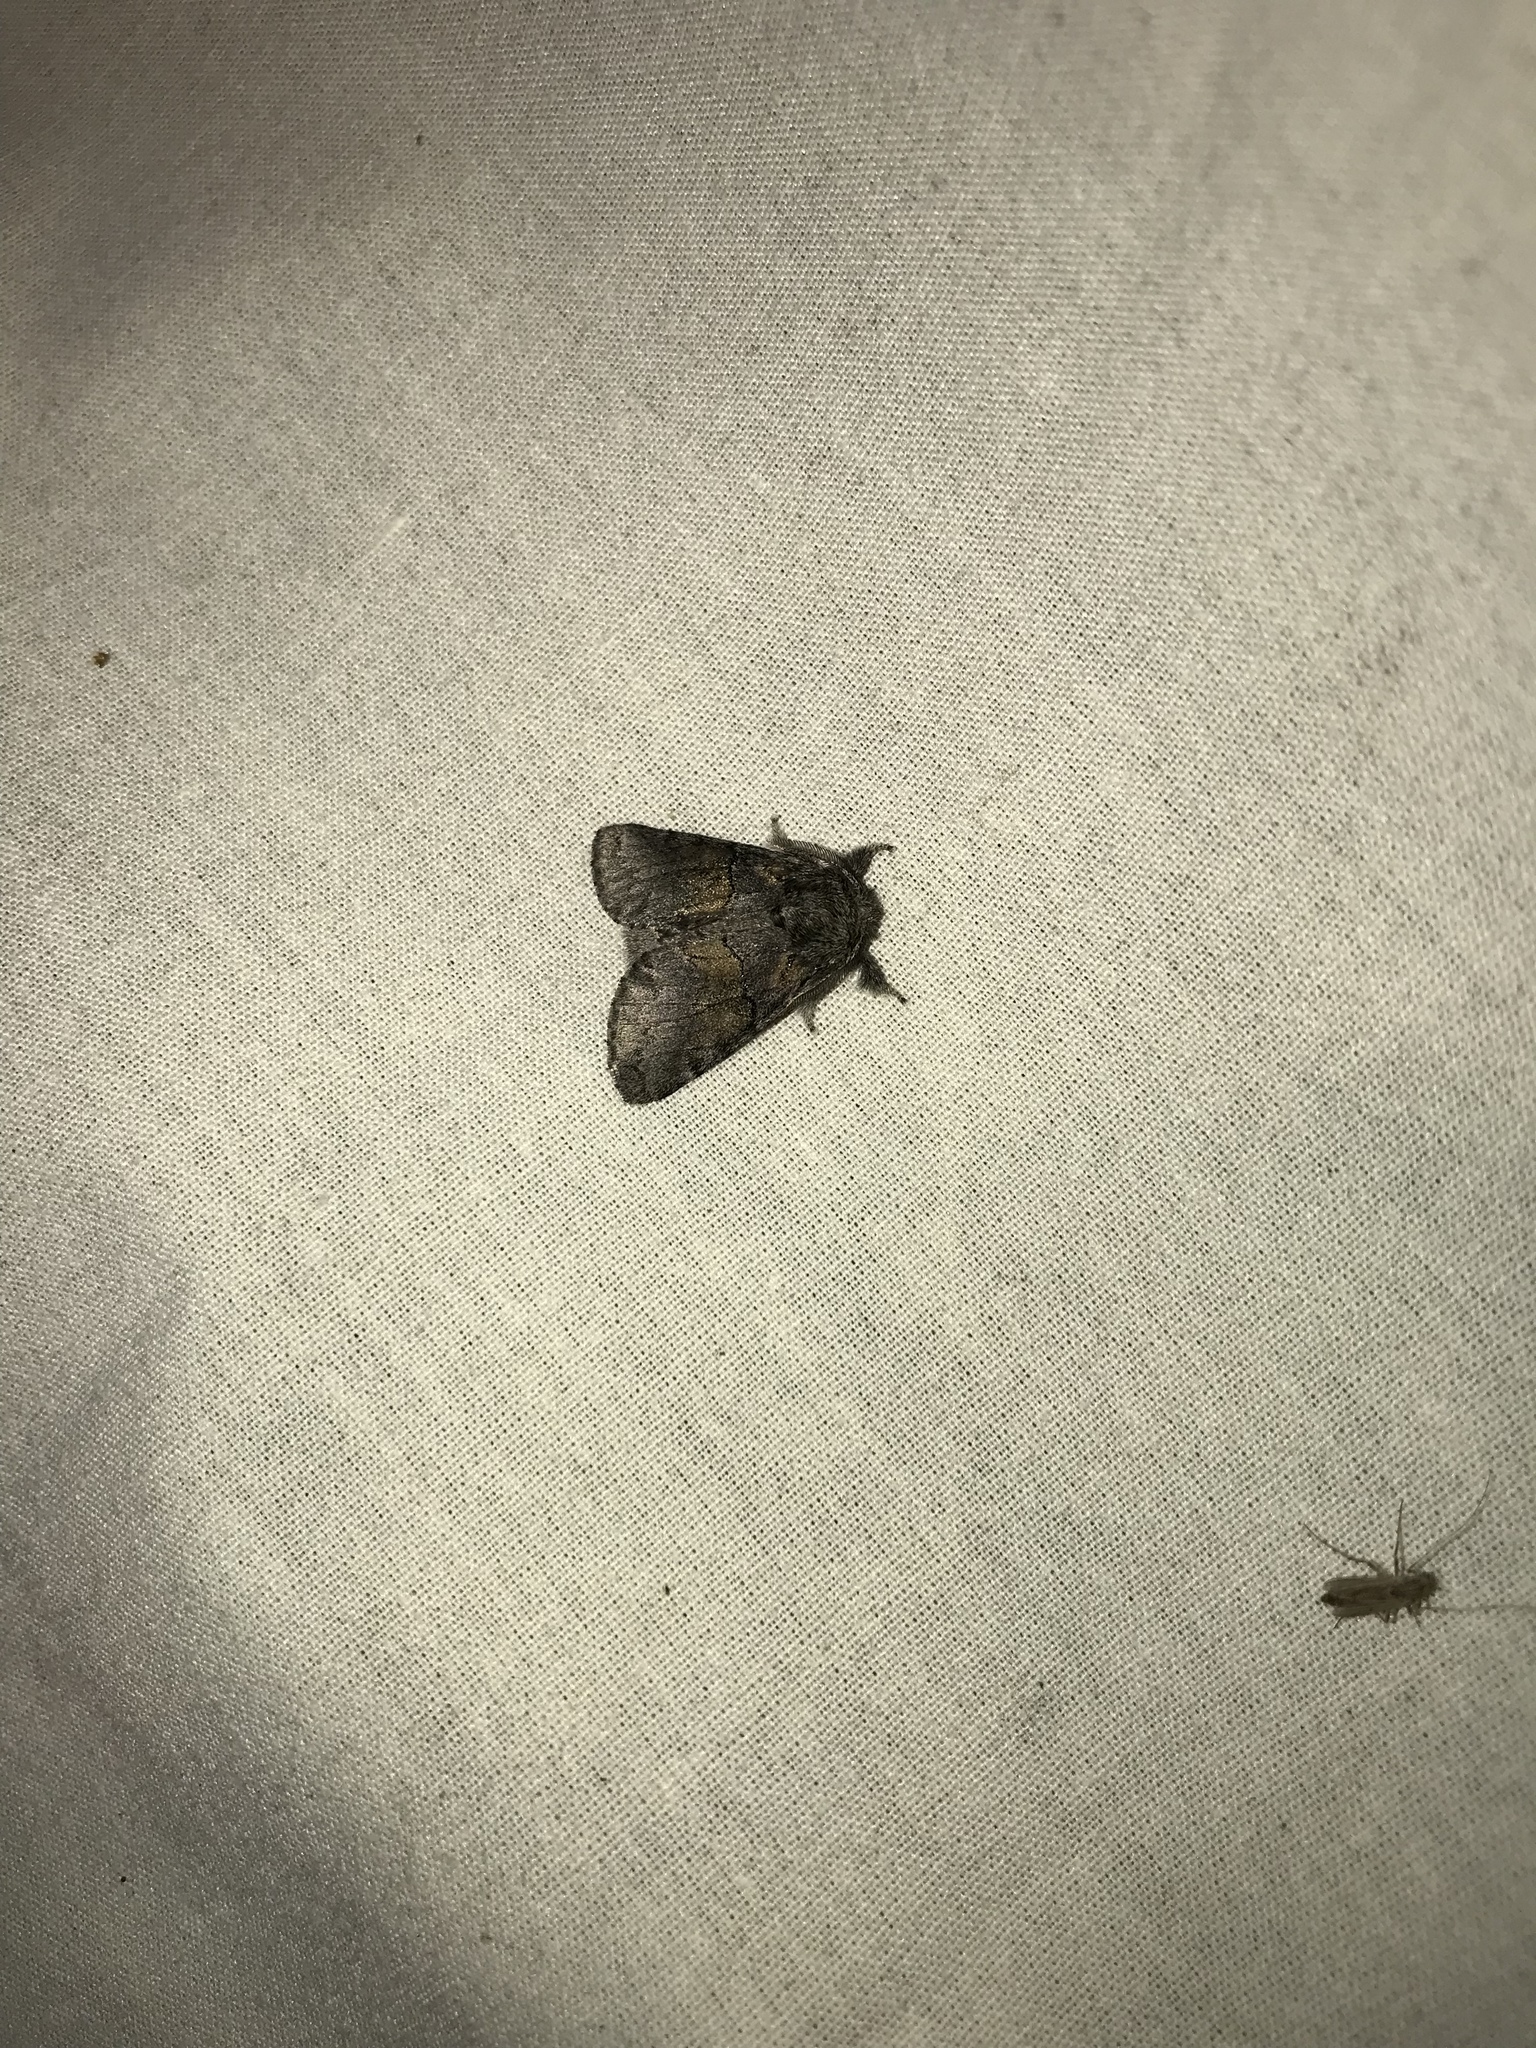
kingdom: Animalia
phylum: Arthropoda
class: Insecta
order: Lepidoptera
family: Notodontidae
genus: Gluphisia
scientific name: Gluphisia septentrionis
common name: Common gluphisia
